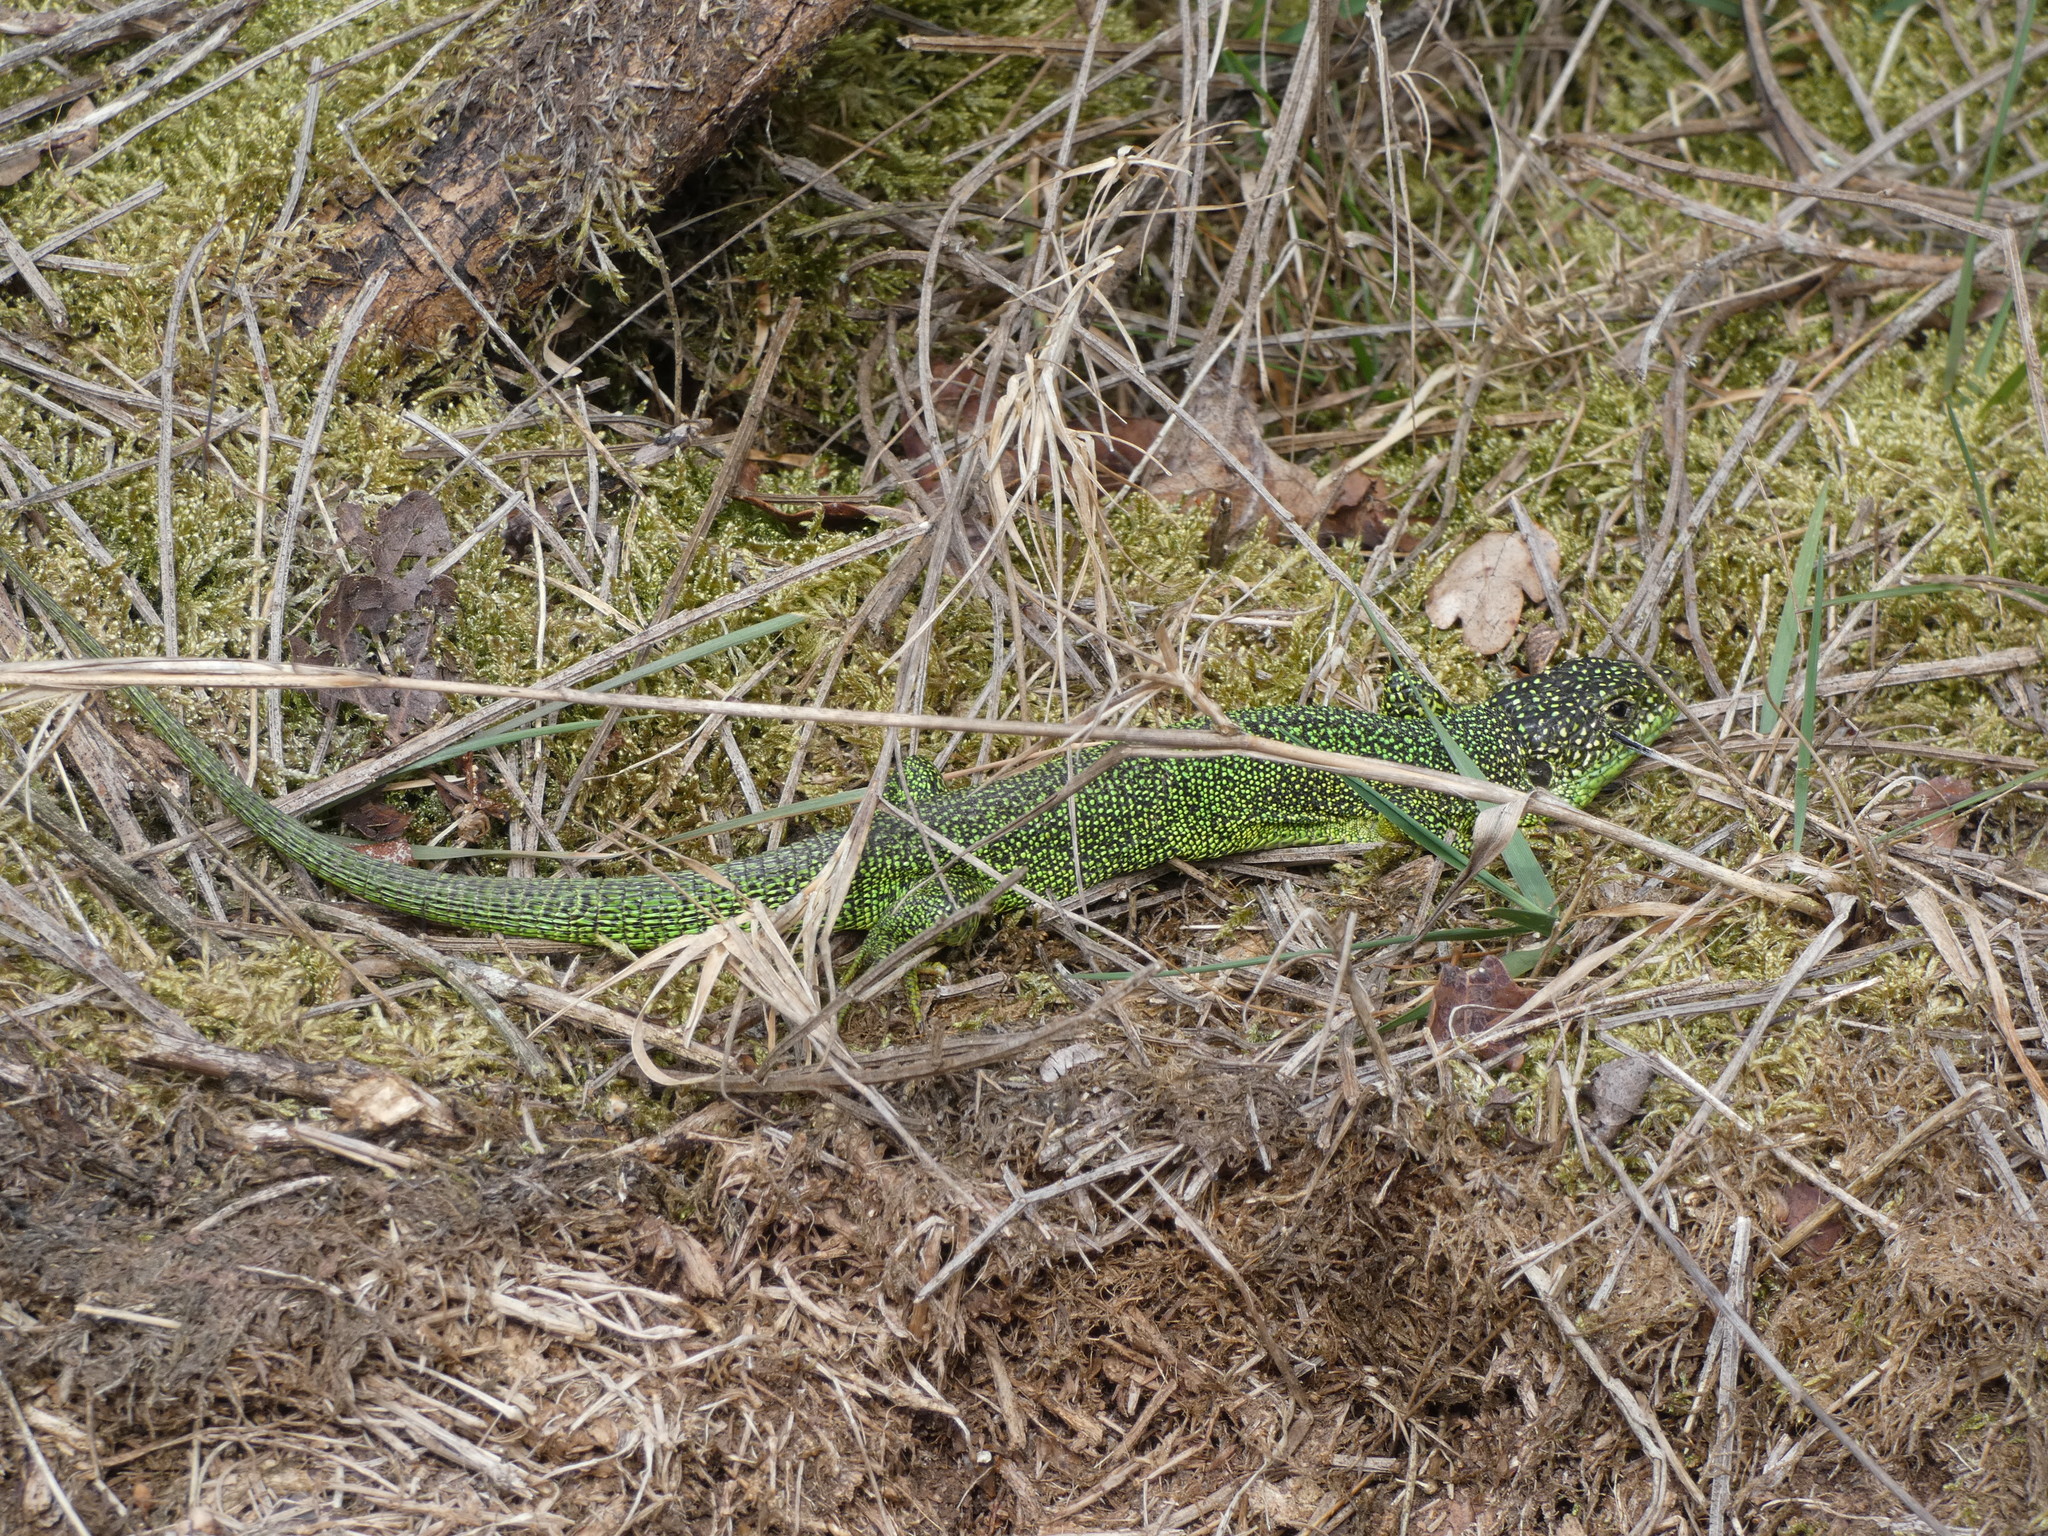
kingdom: Animalia
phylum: Chordata
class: Squamata
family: Lacertidae
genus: Lacerta
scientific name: Lacerta bilineata
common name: Western green lizard
